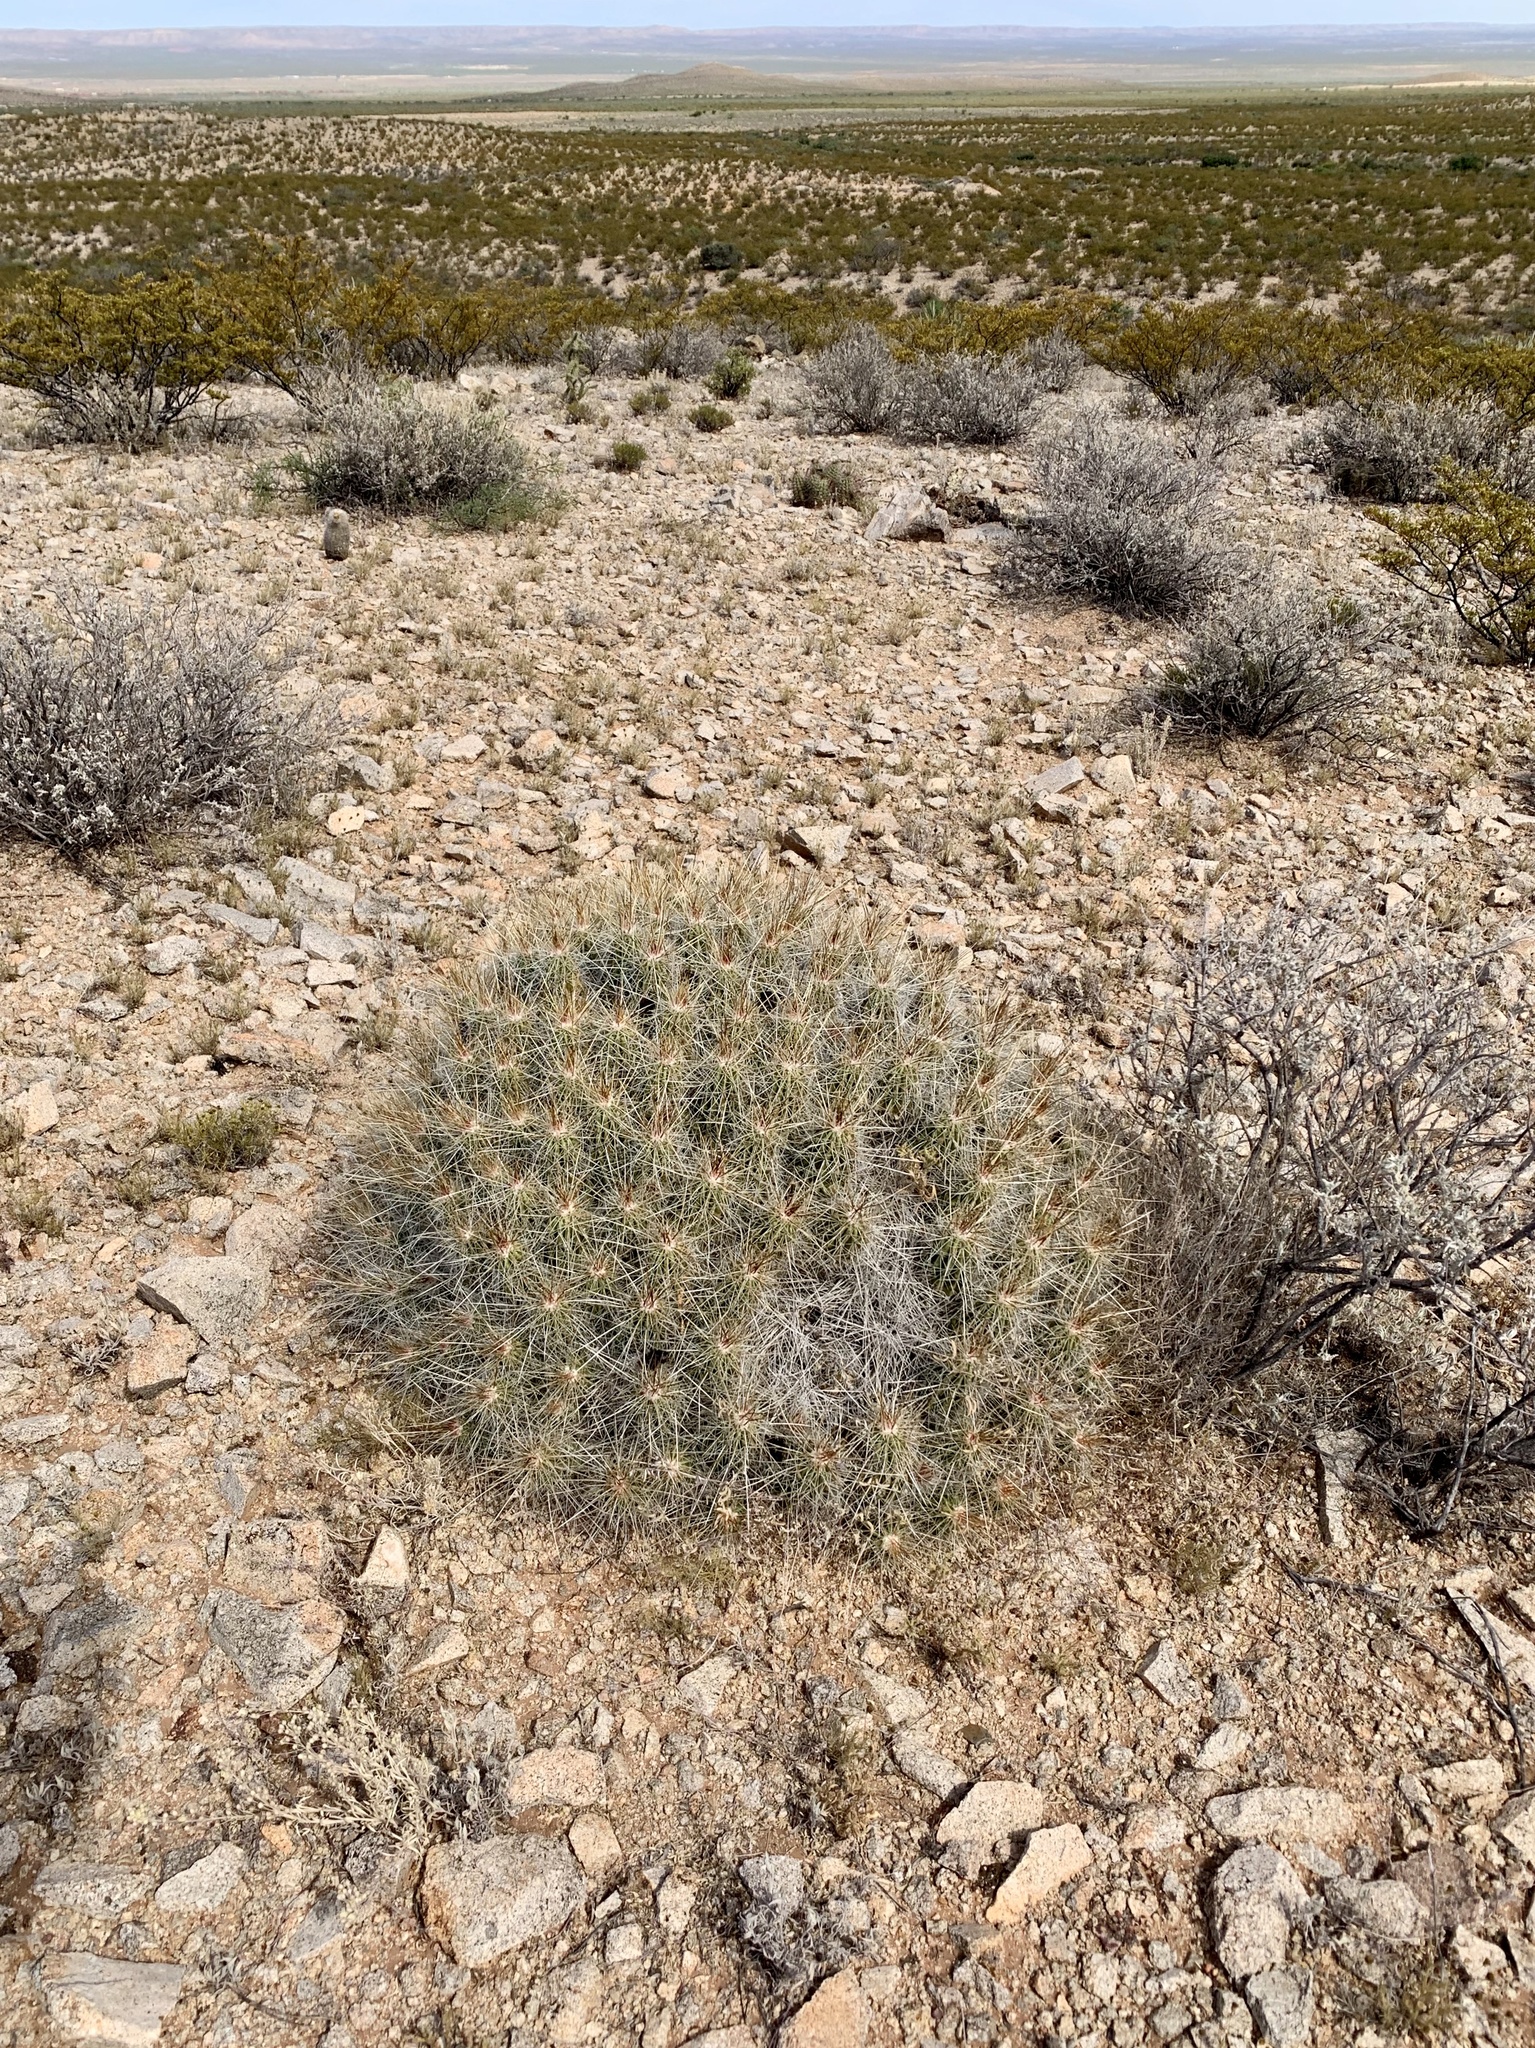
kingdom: Plantae
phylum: Tracheophyta
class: Magnoliopsida
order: Caryophyllales
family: Cactaceae
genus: Echinocereus
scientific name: Echinocereus stramineus
